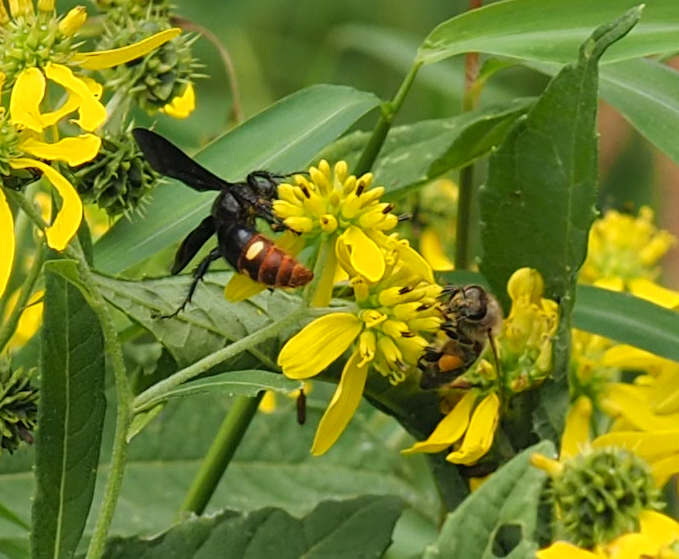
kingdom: Animalia
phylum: Arthropoda
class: Insecta
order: Hymenoptera
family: Scoliidae
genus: Scolia
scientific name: Scolia dubia
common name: Blue-winged scoliid wasp
